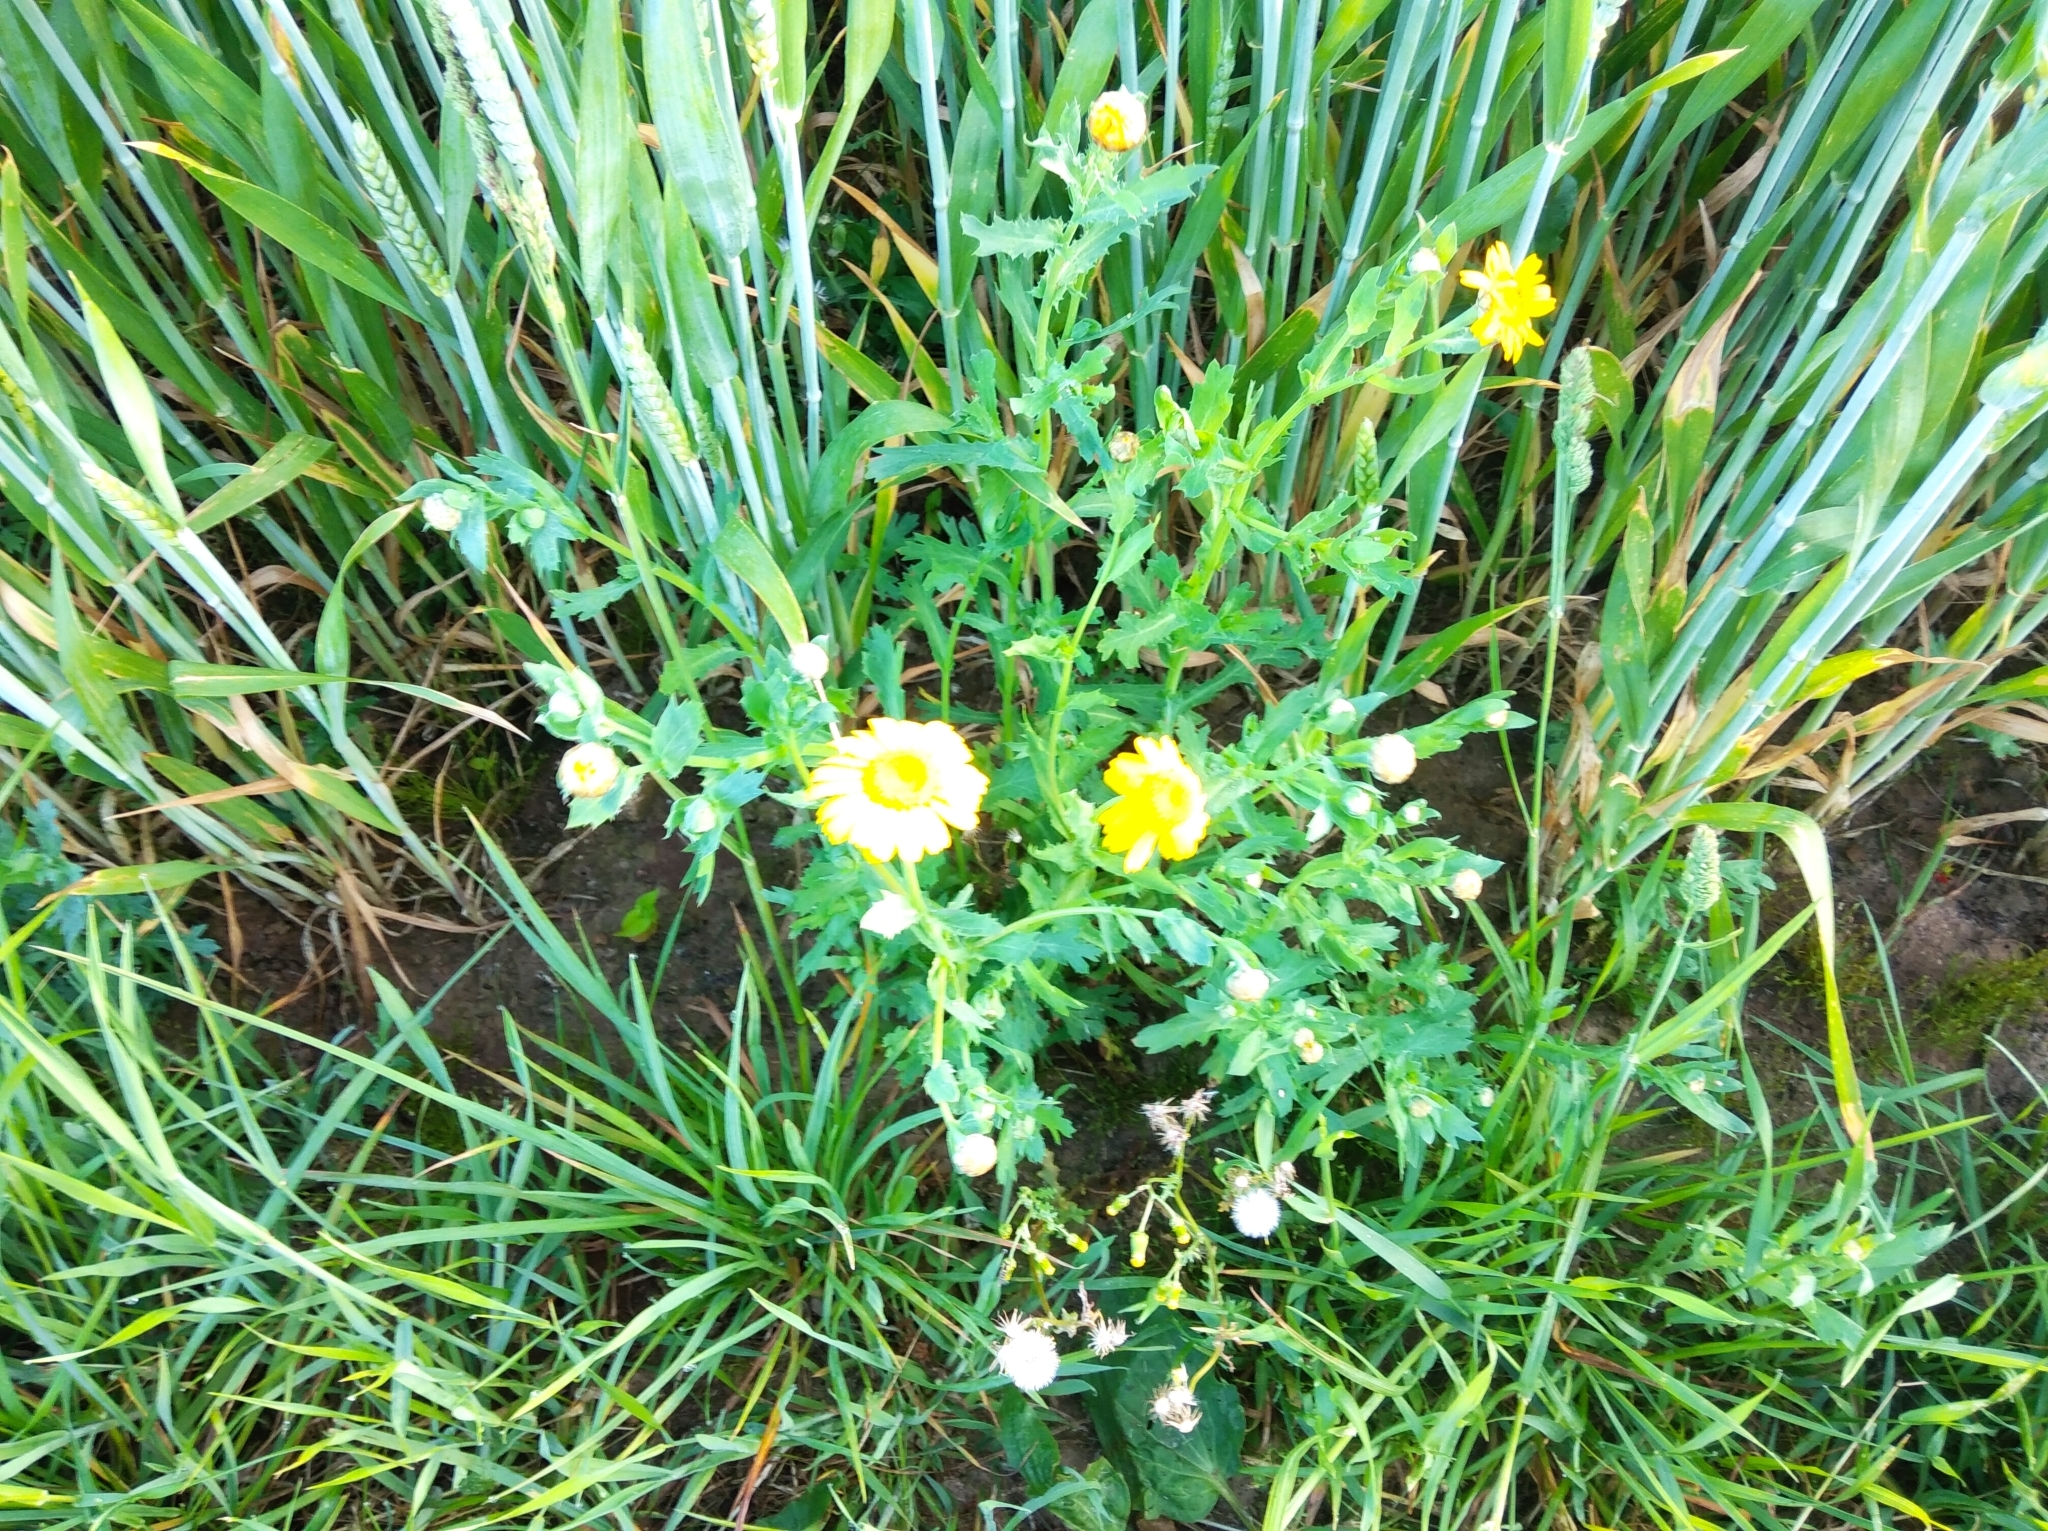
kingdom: Plantae
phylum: Tracheophyta
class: Magnoliopsida
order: Asterales
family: Asteraceae
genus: Glebionis
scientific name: Glebionis segetum
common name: Corndaisy
